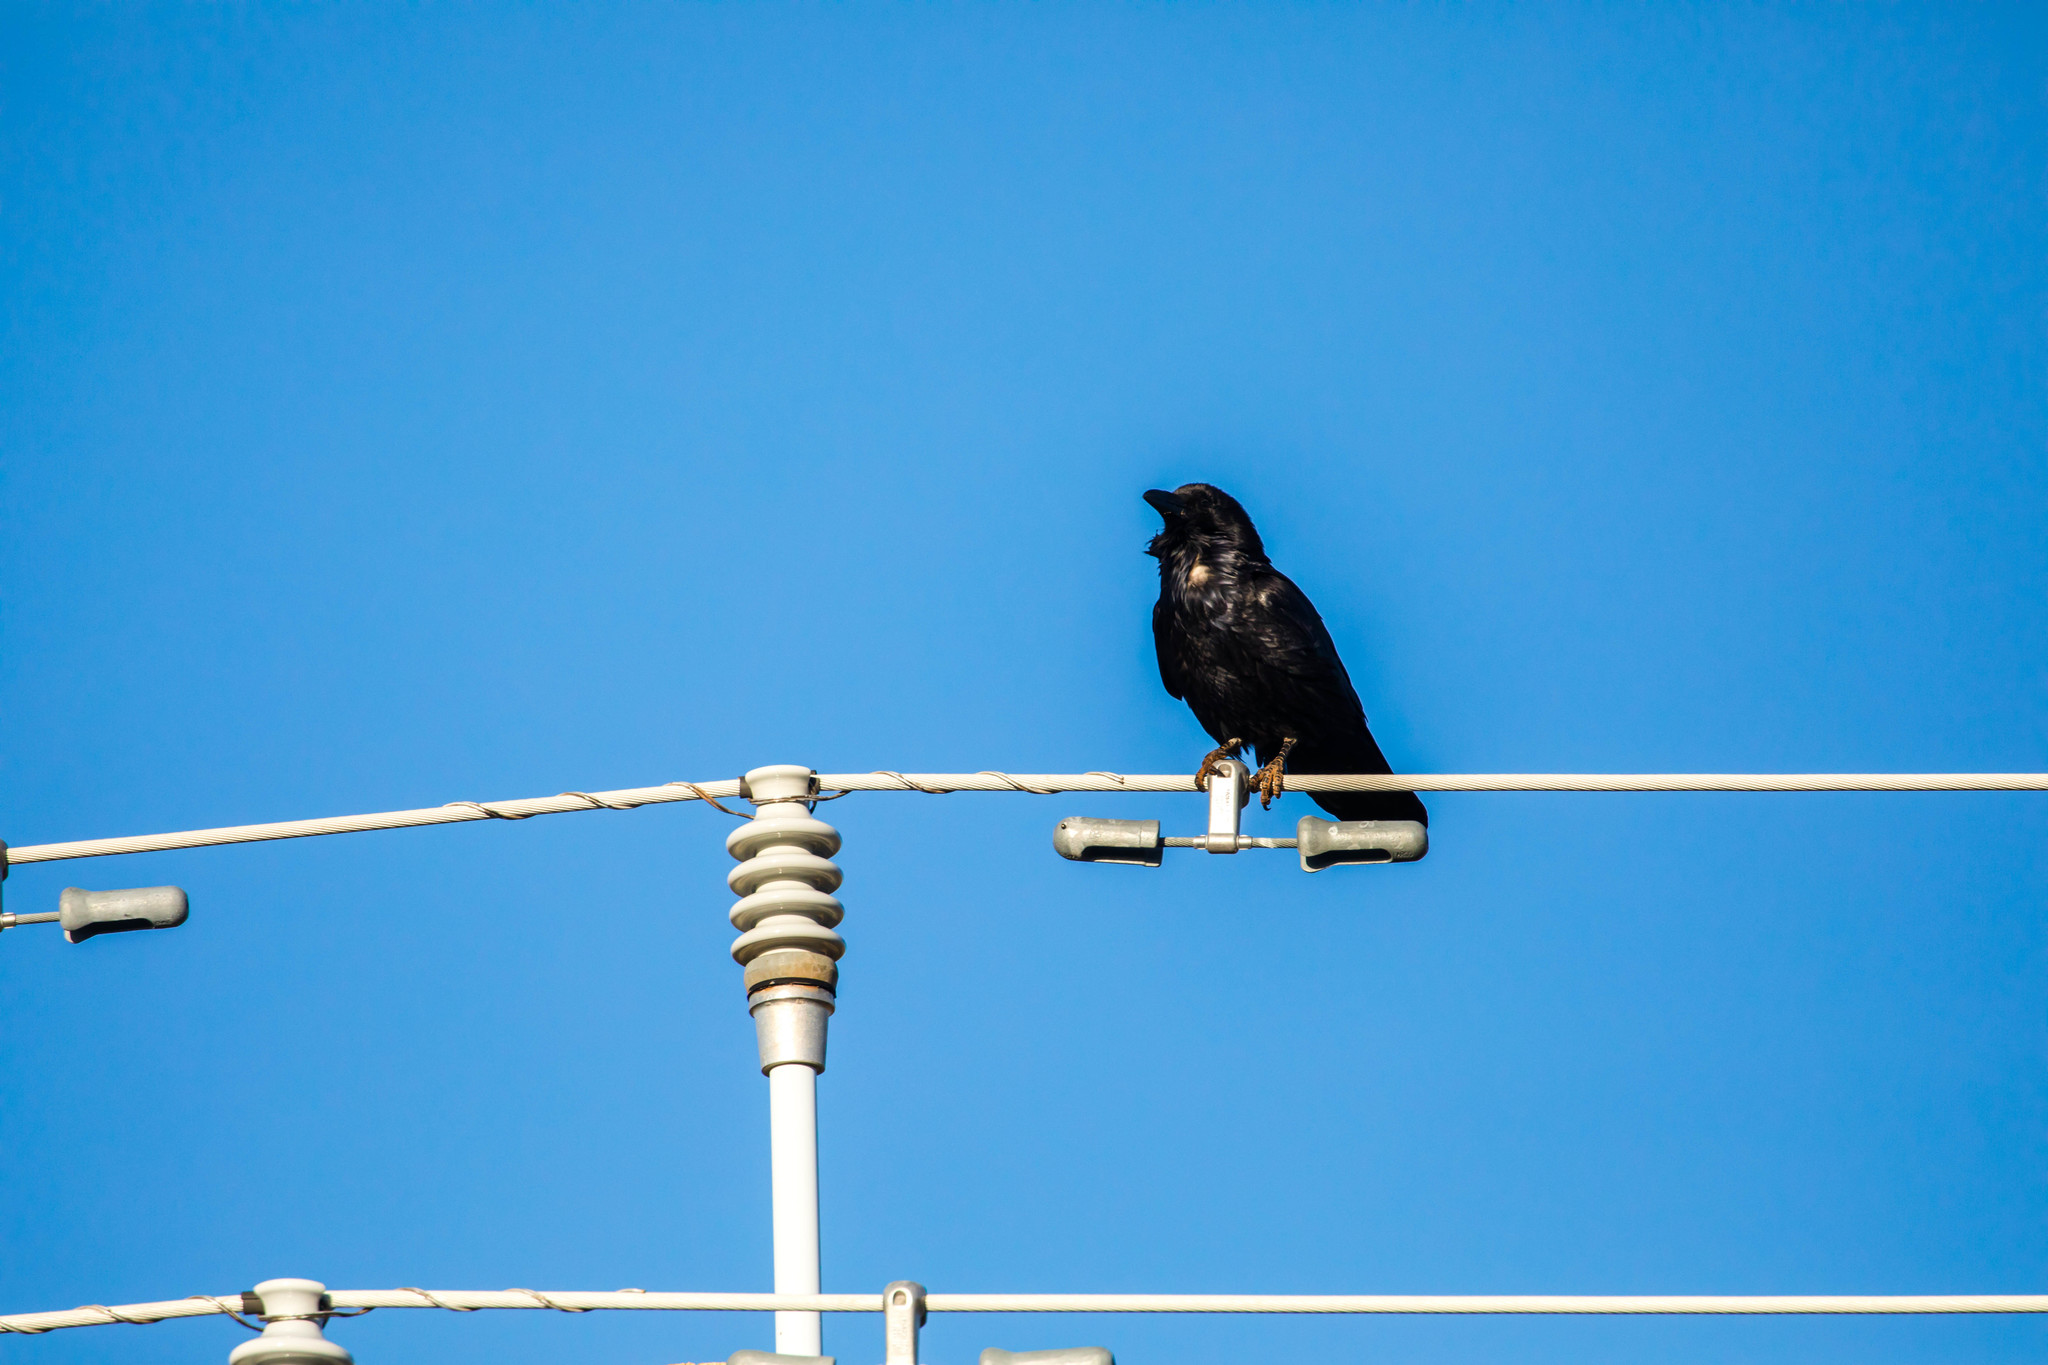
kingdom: Animalia
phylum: Chordata
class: Aves
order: Passeriformes
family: Corvidae
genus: Corvus
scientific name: Corvus cryptoleucus
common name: Chihuahuan raven
